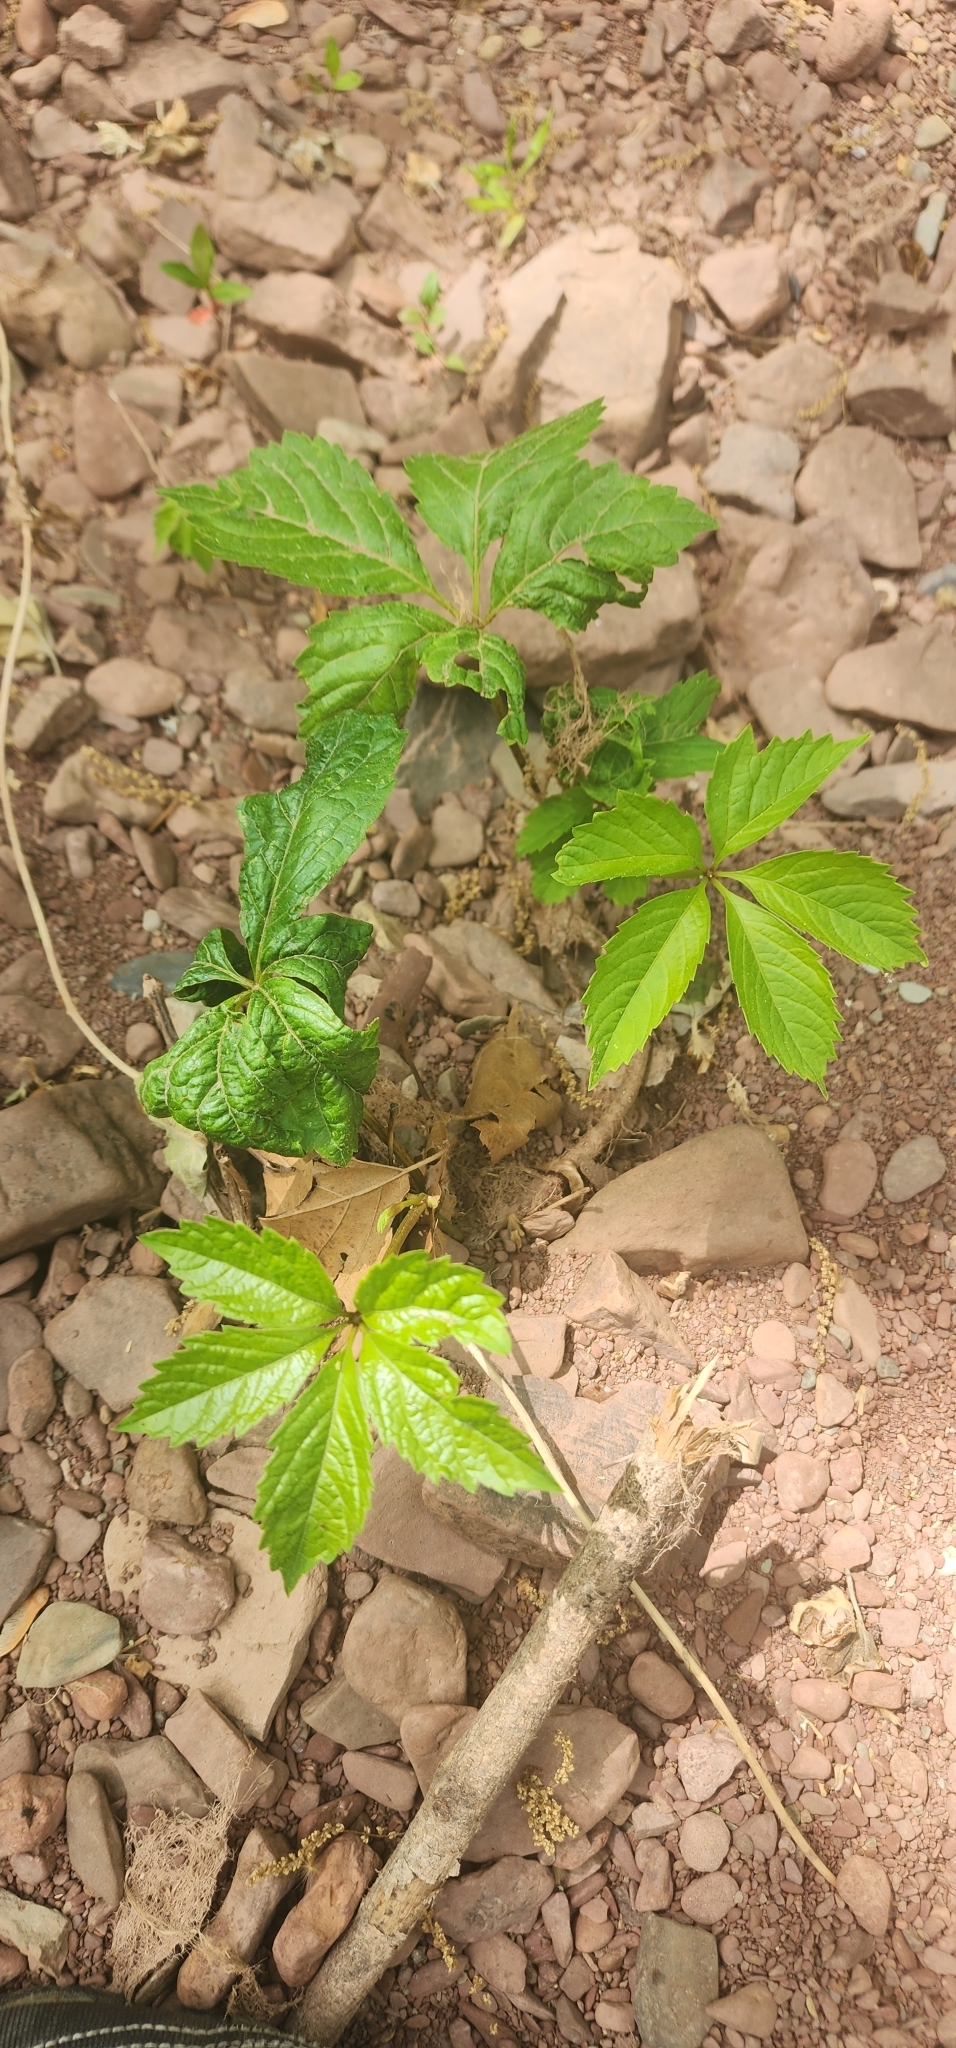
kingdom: Plantae
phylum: Tracheophyta
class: Magnoliopsida
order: Vitales
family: Vitaceae
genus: Parthenocissus
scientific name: Parthenocissus quinquefolia
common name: Virginia-creeper
